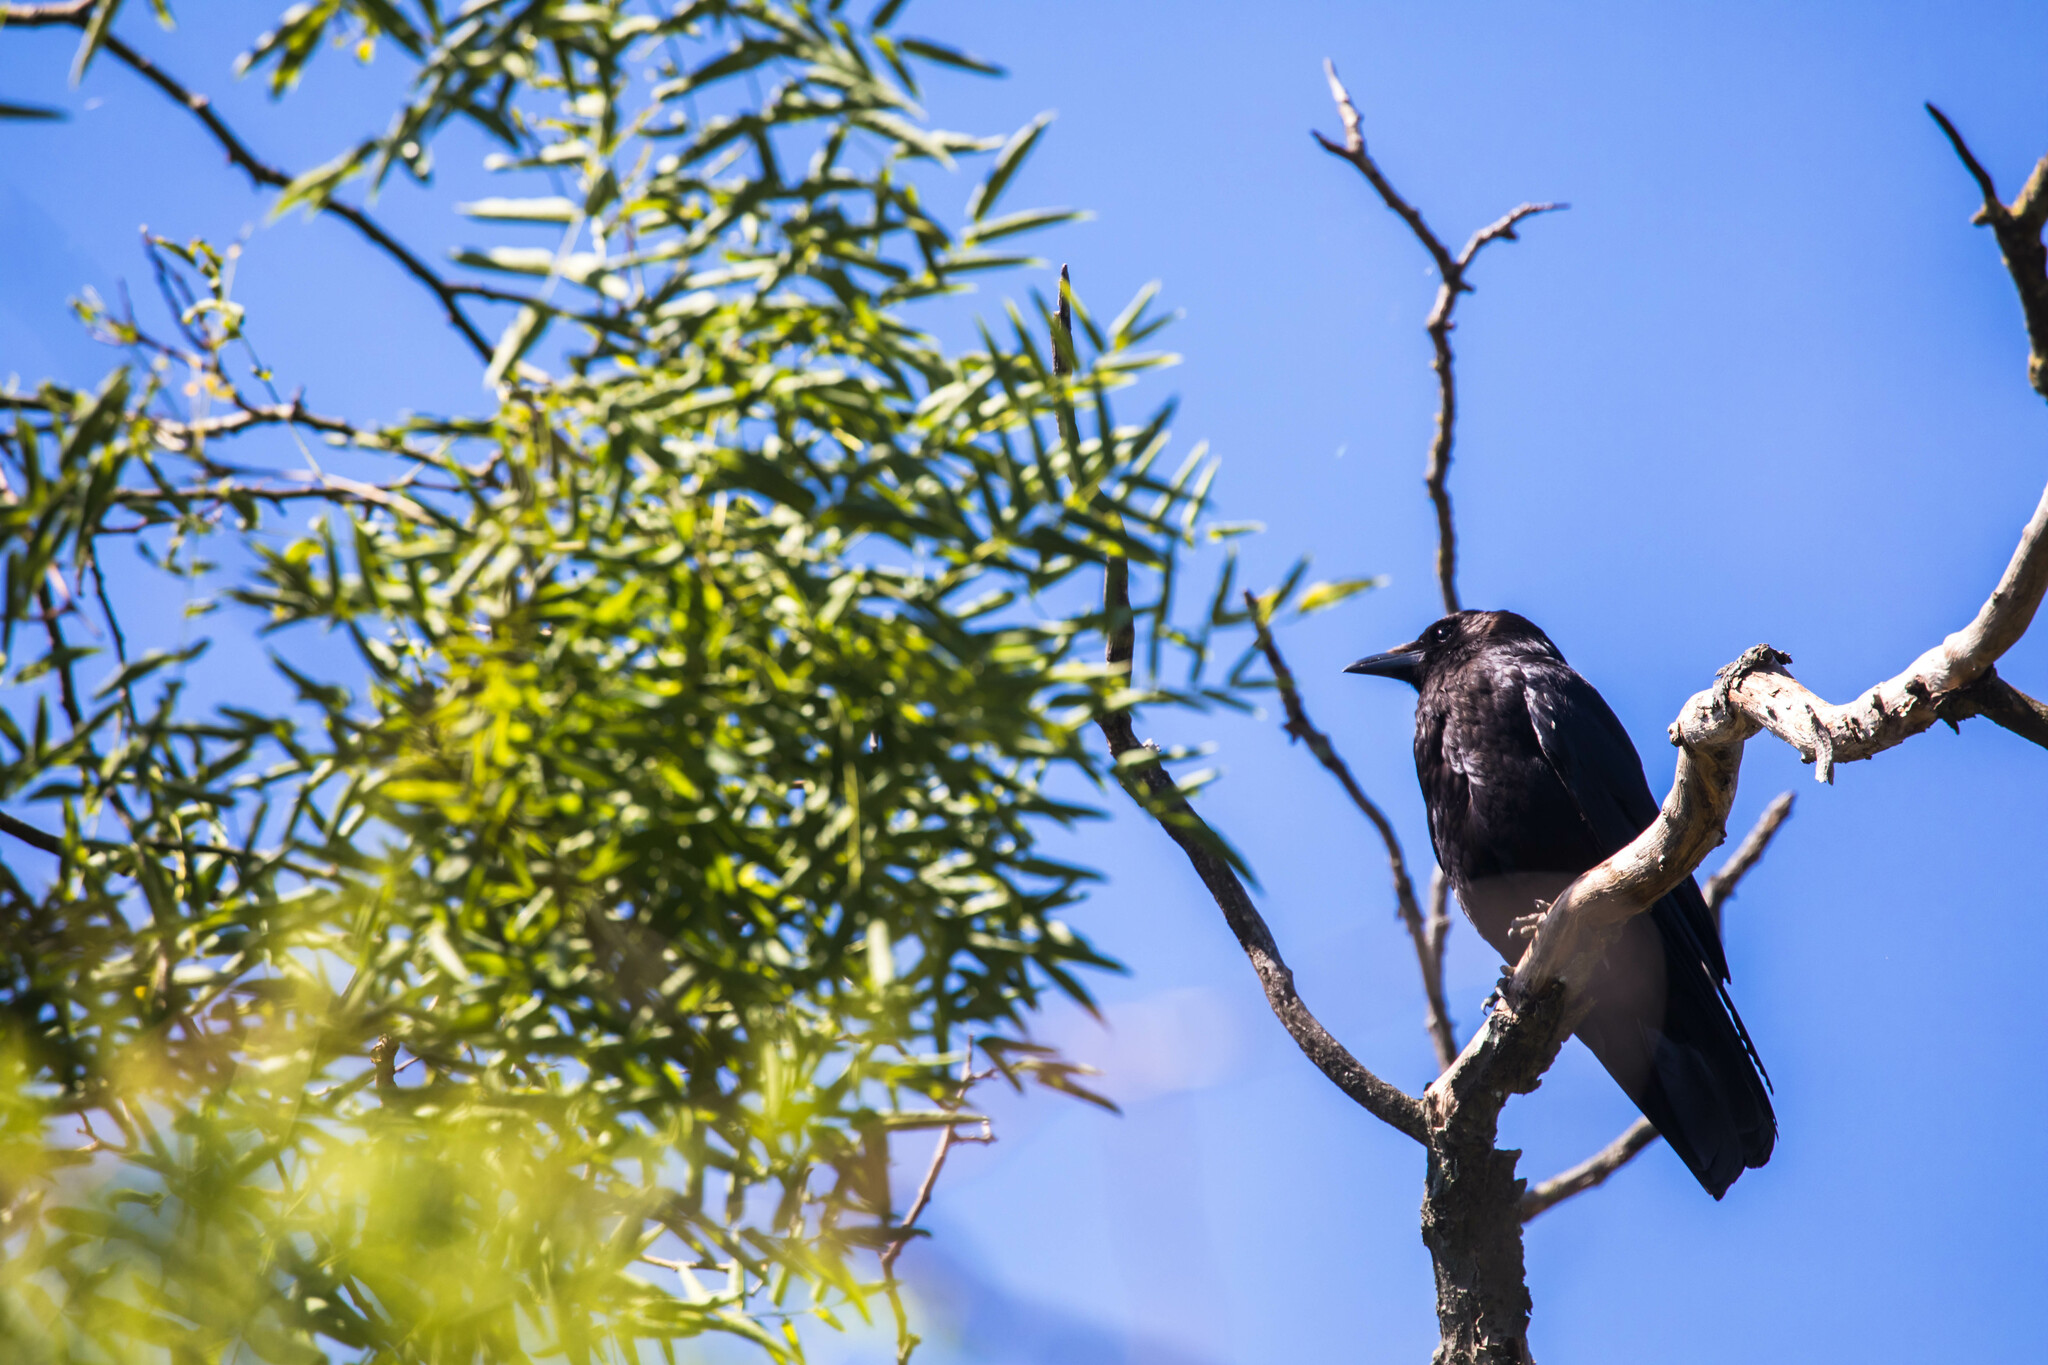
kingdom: Animalia
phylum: Chordata
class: Aves
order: Passeriformes
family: Corvidae
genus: Corvus
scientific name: Corvus corone
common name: Carrion crow
